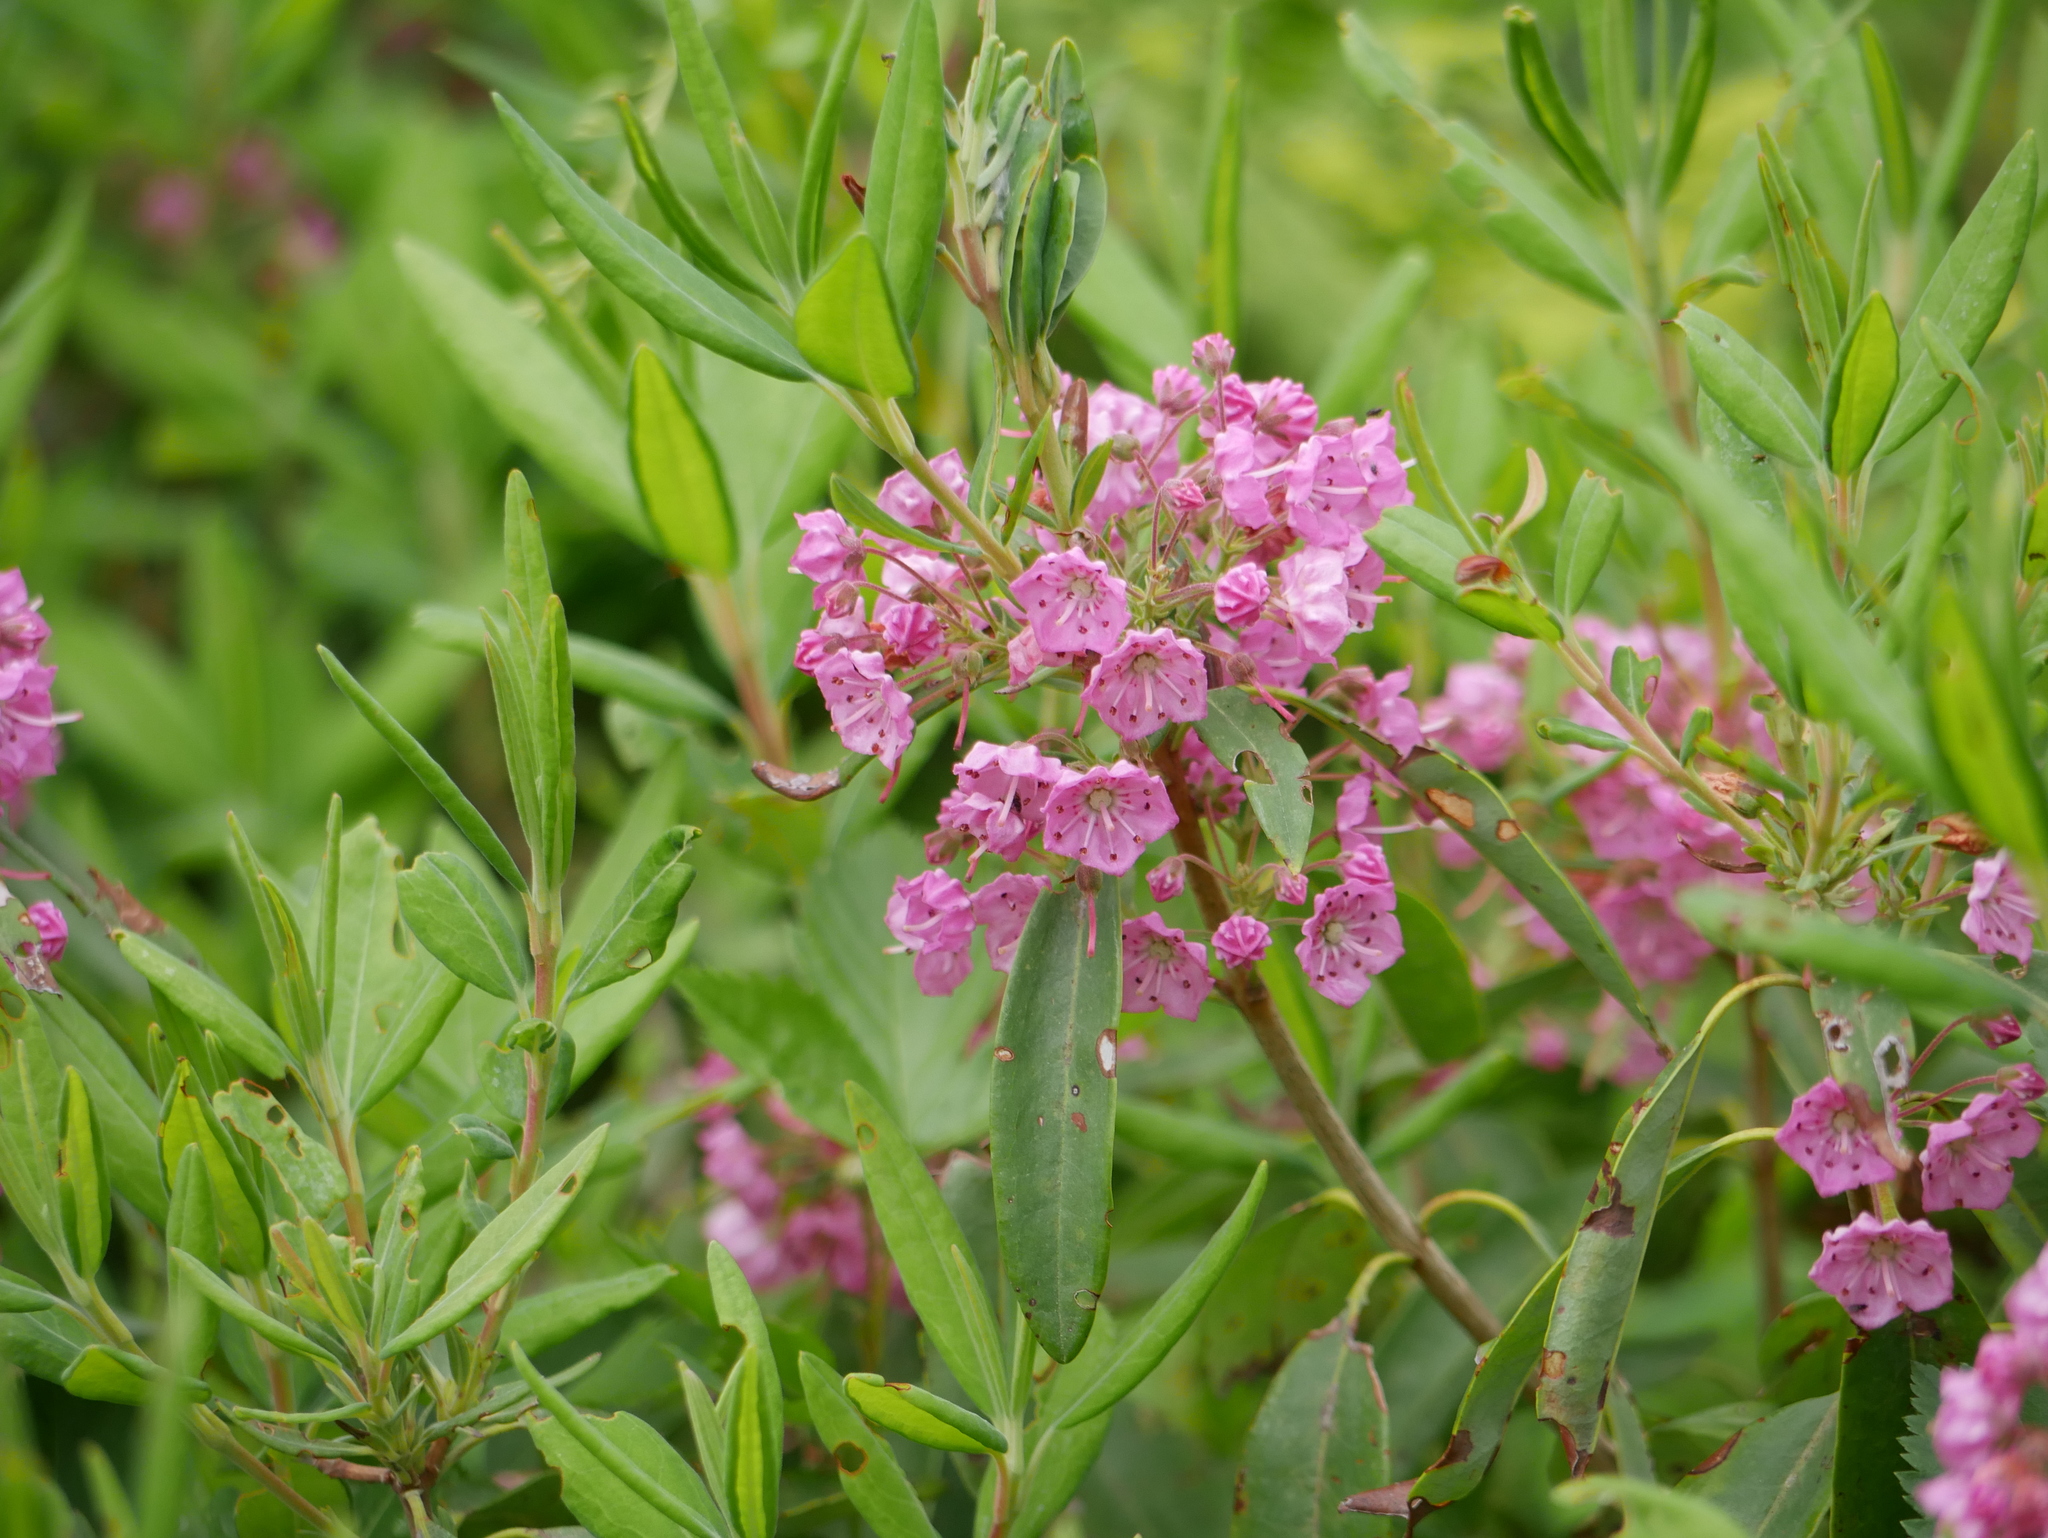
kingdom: Plantae
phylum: Tracheophyta
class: Magnoliopsida
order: Ericales
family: Ericaceae
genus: Kalmia
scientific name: Kalmia angustifolia
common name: Sheep-laurel
